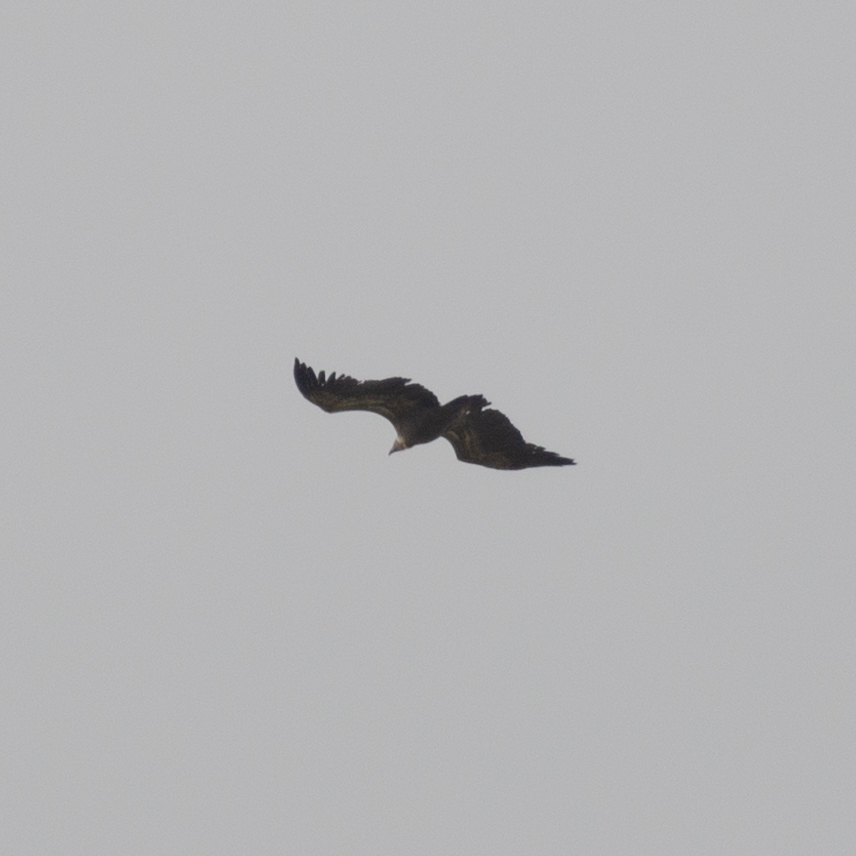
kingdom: Animalia
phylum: Chordata
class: Aves
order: Accipitriformes
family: Accipitridae
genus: Gyps
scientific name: Gyps fulvus
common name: Griffon vulture
